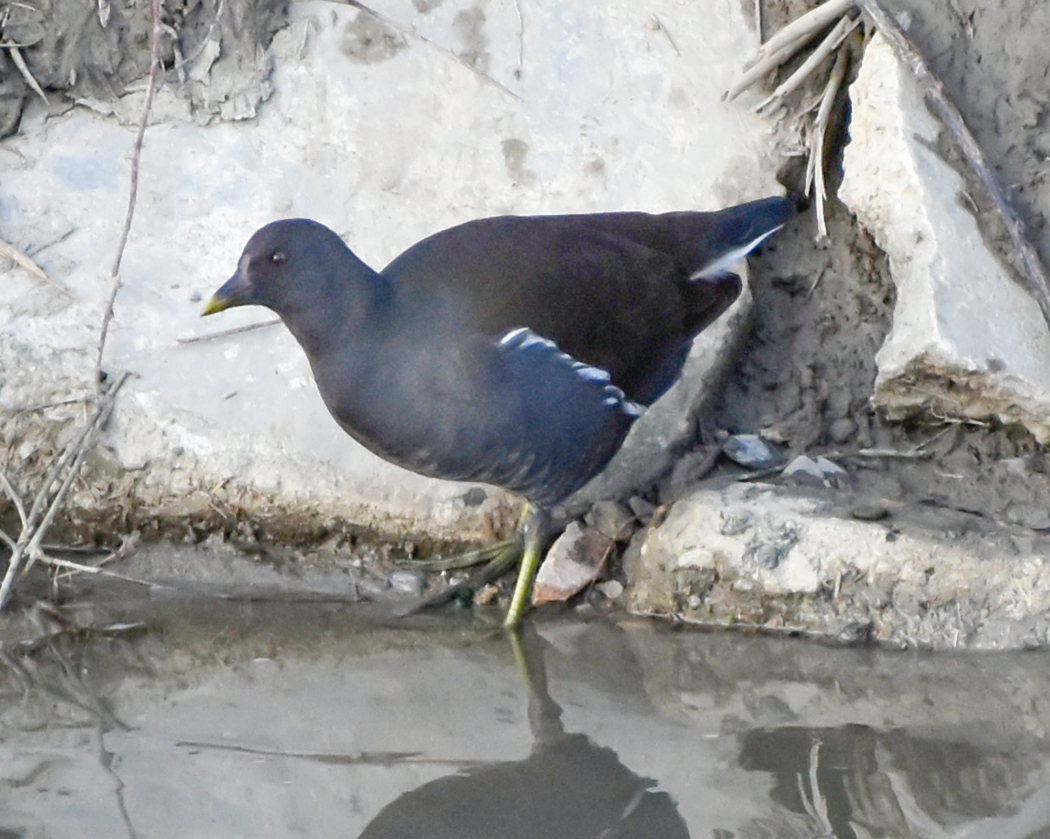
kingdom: Animalia
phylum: Chordata
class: Aves
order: Gruiformes
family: Rallidae
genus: Gallinula
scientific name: Gallinula chloropus
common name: Common moorhen
